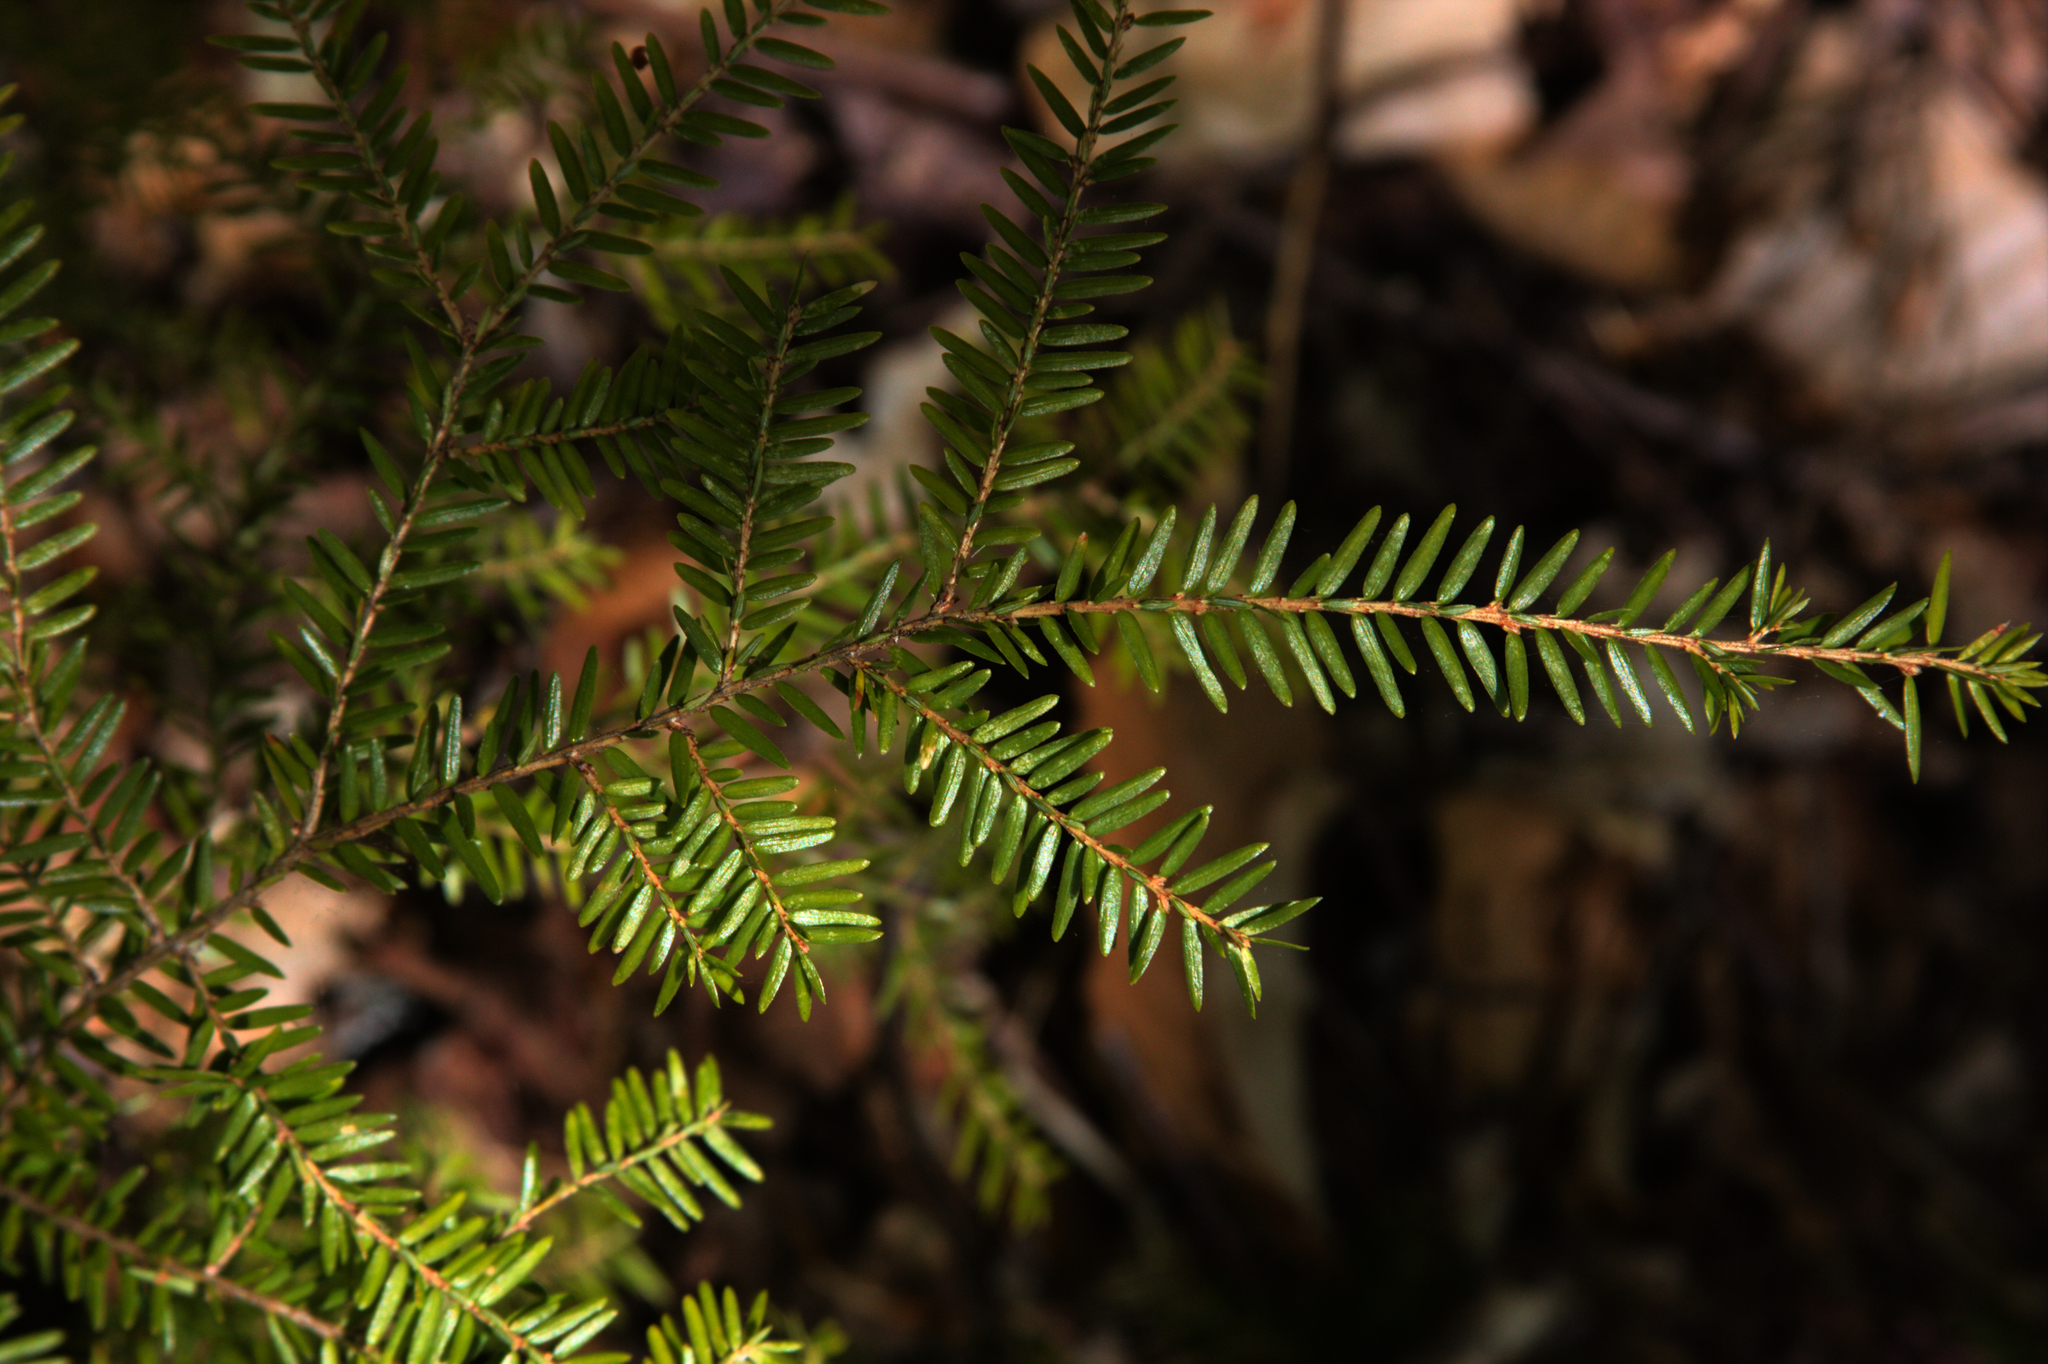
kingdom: Plantae
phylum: Tracheophyta
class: Pinopsida
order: Pinales
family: Pinaceae
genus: Tsuga
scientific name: Tsuga canadensis
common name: Eastern hemlock
